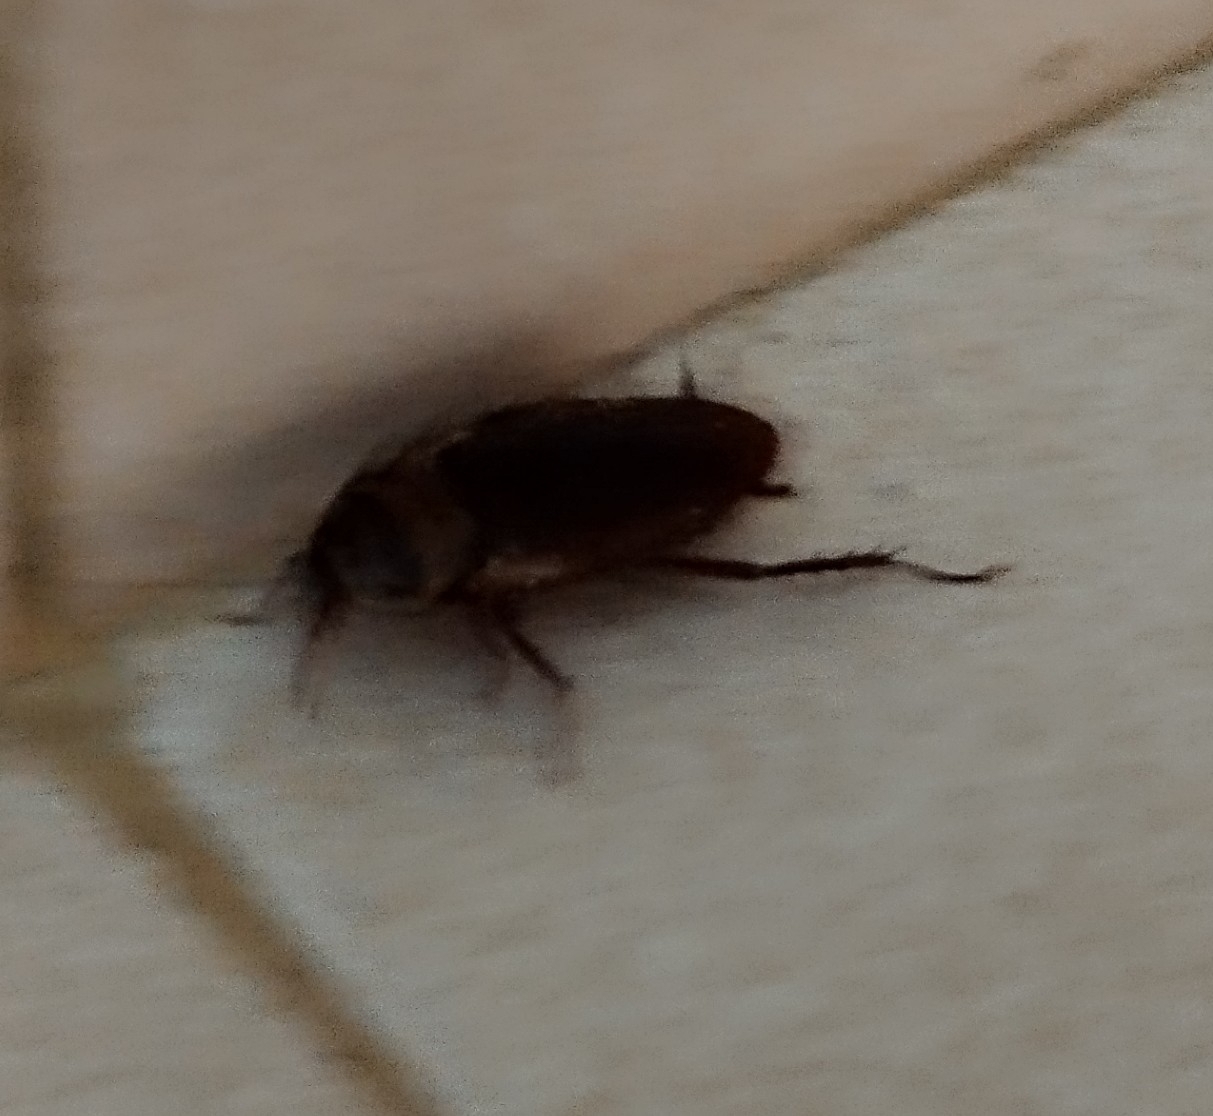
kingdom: Animalia
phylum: Arthropoda
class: Insecta
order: Blattodea
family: Blattidae
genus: Periplaneta
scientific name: Periplaneta australasiae
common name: Australian cockroach
